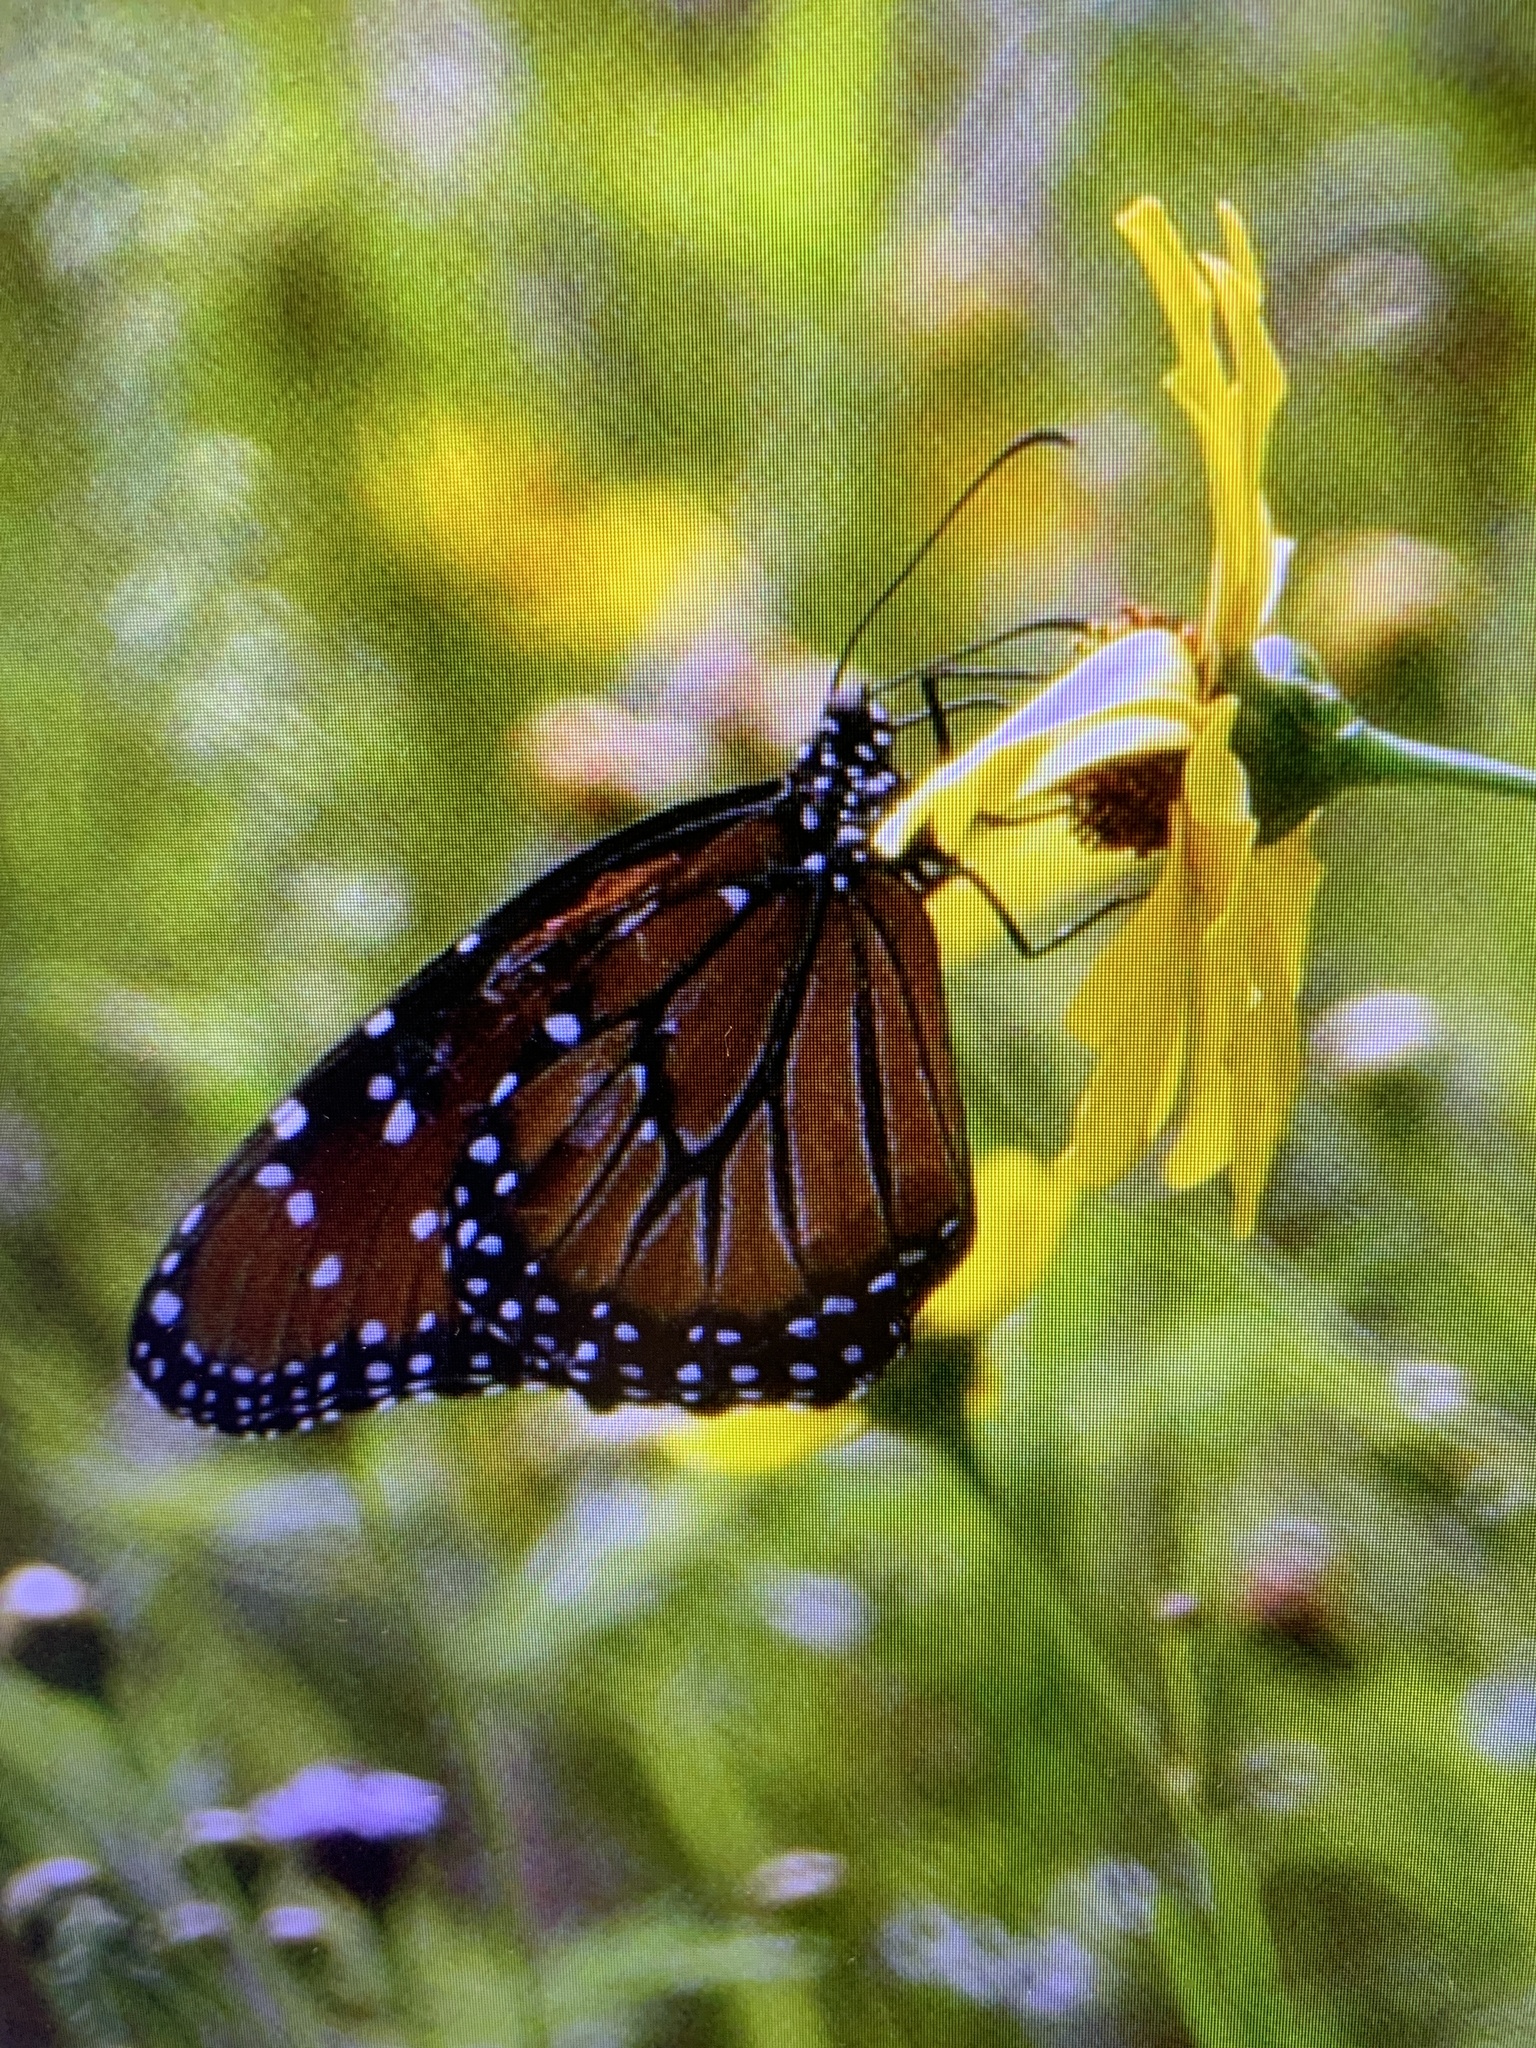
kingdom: Animalia
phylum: Arthropoda
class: Insecta
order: Lepidoptera
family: Nymphalidae
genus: Danaus
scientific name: Danaus gilippus
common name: Queen
